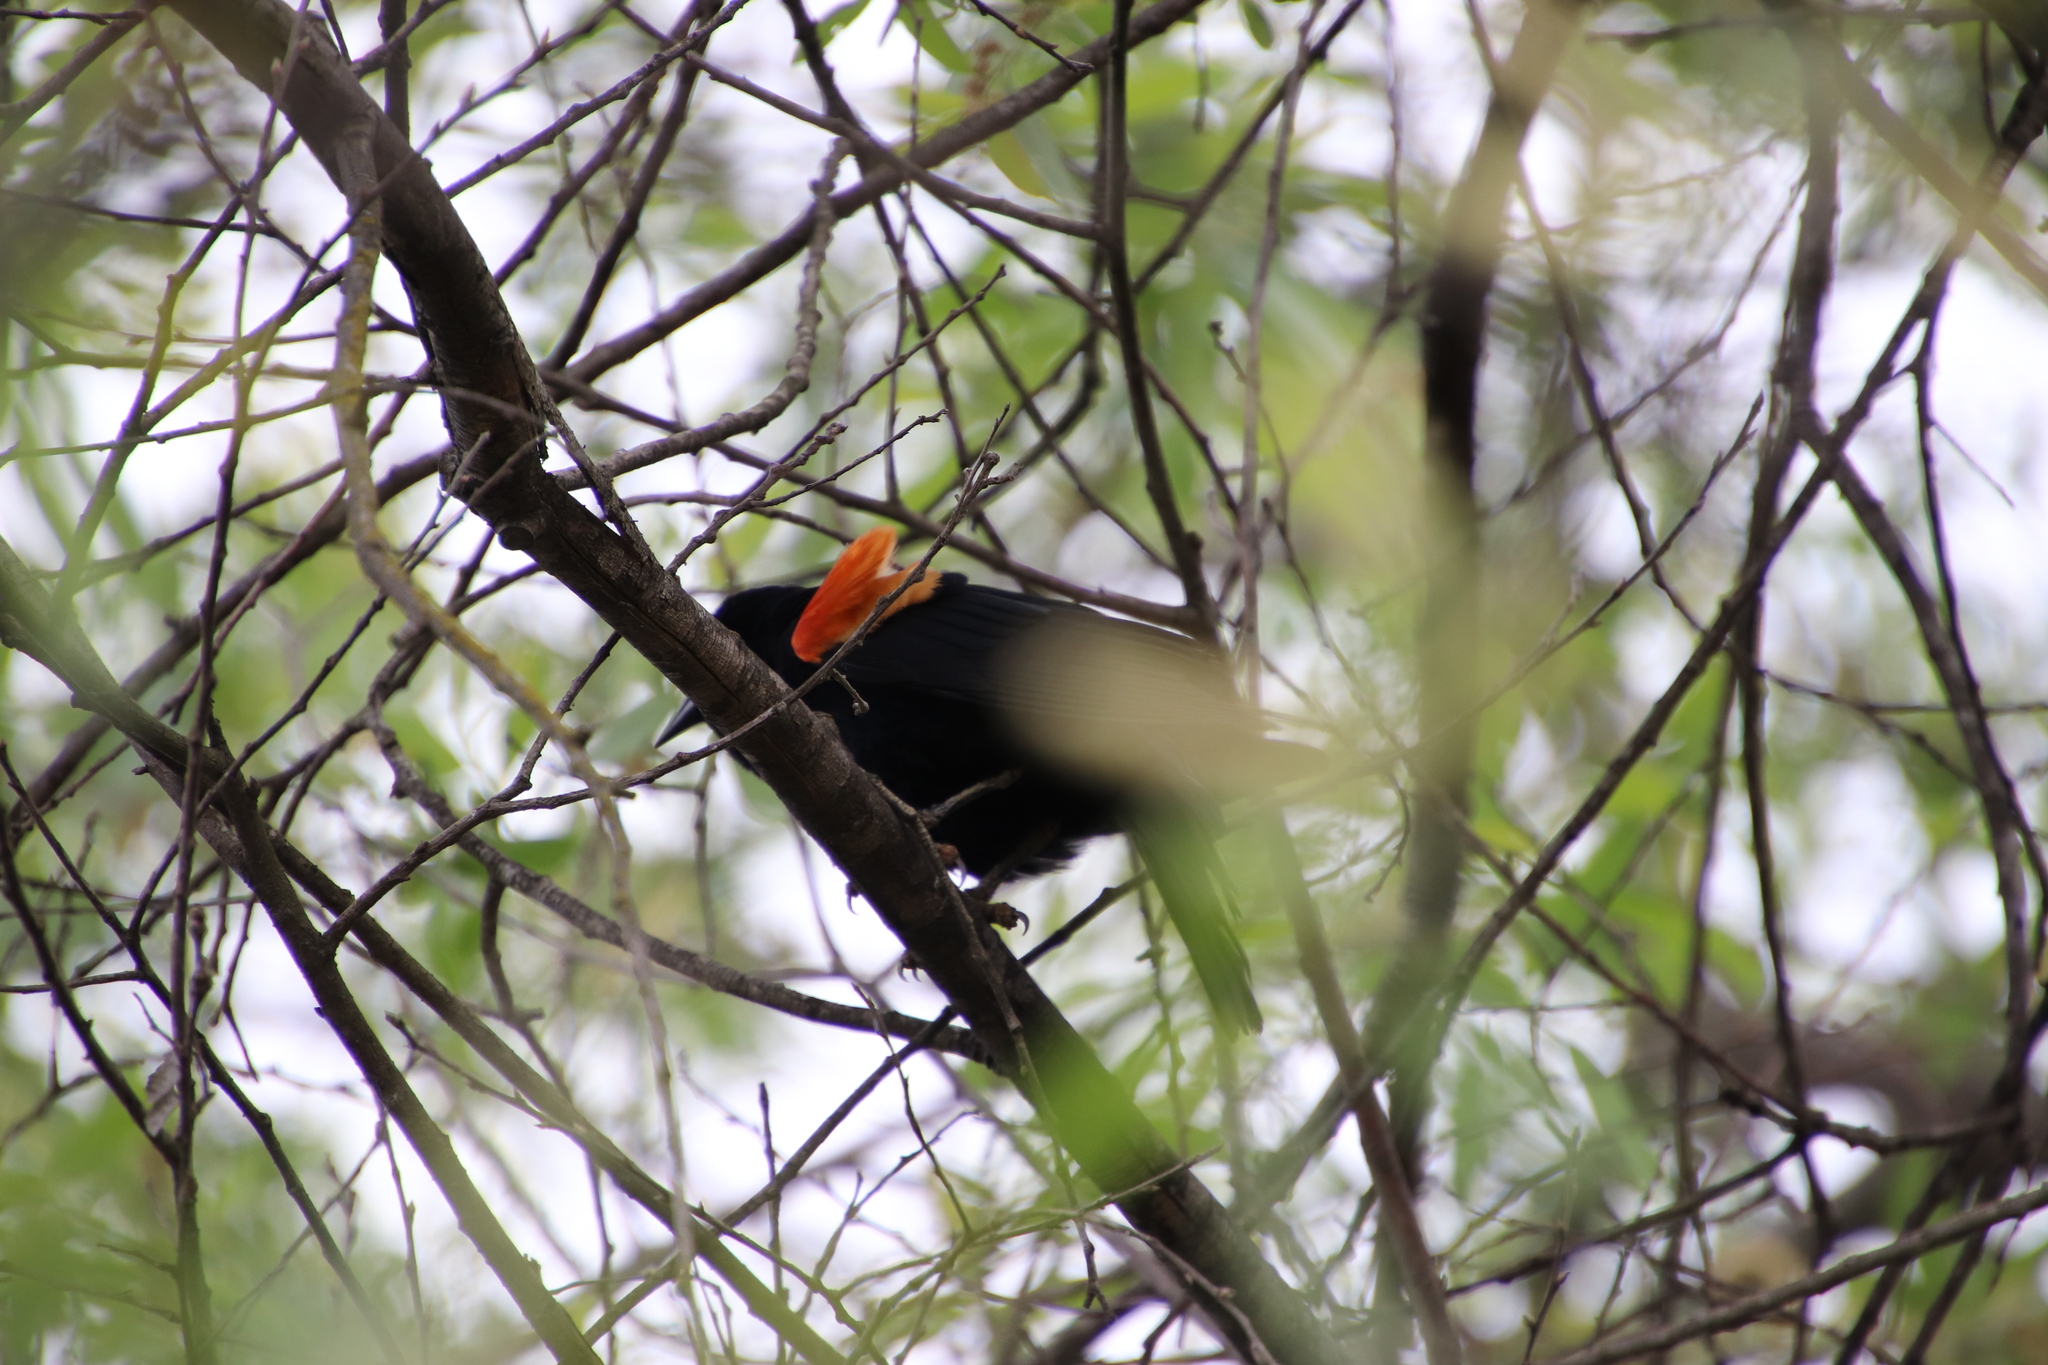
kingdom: Animalia
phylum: Chordata
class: Aves
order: Passeriformes
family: Icteridae
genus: Agelaius
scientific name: Agelaius phoeniceus
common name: Red-winged blackbird
